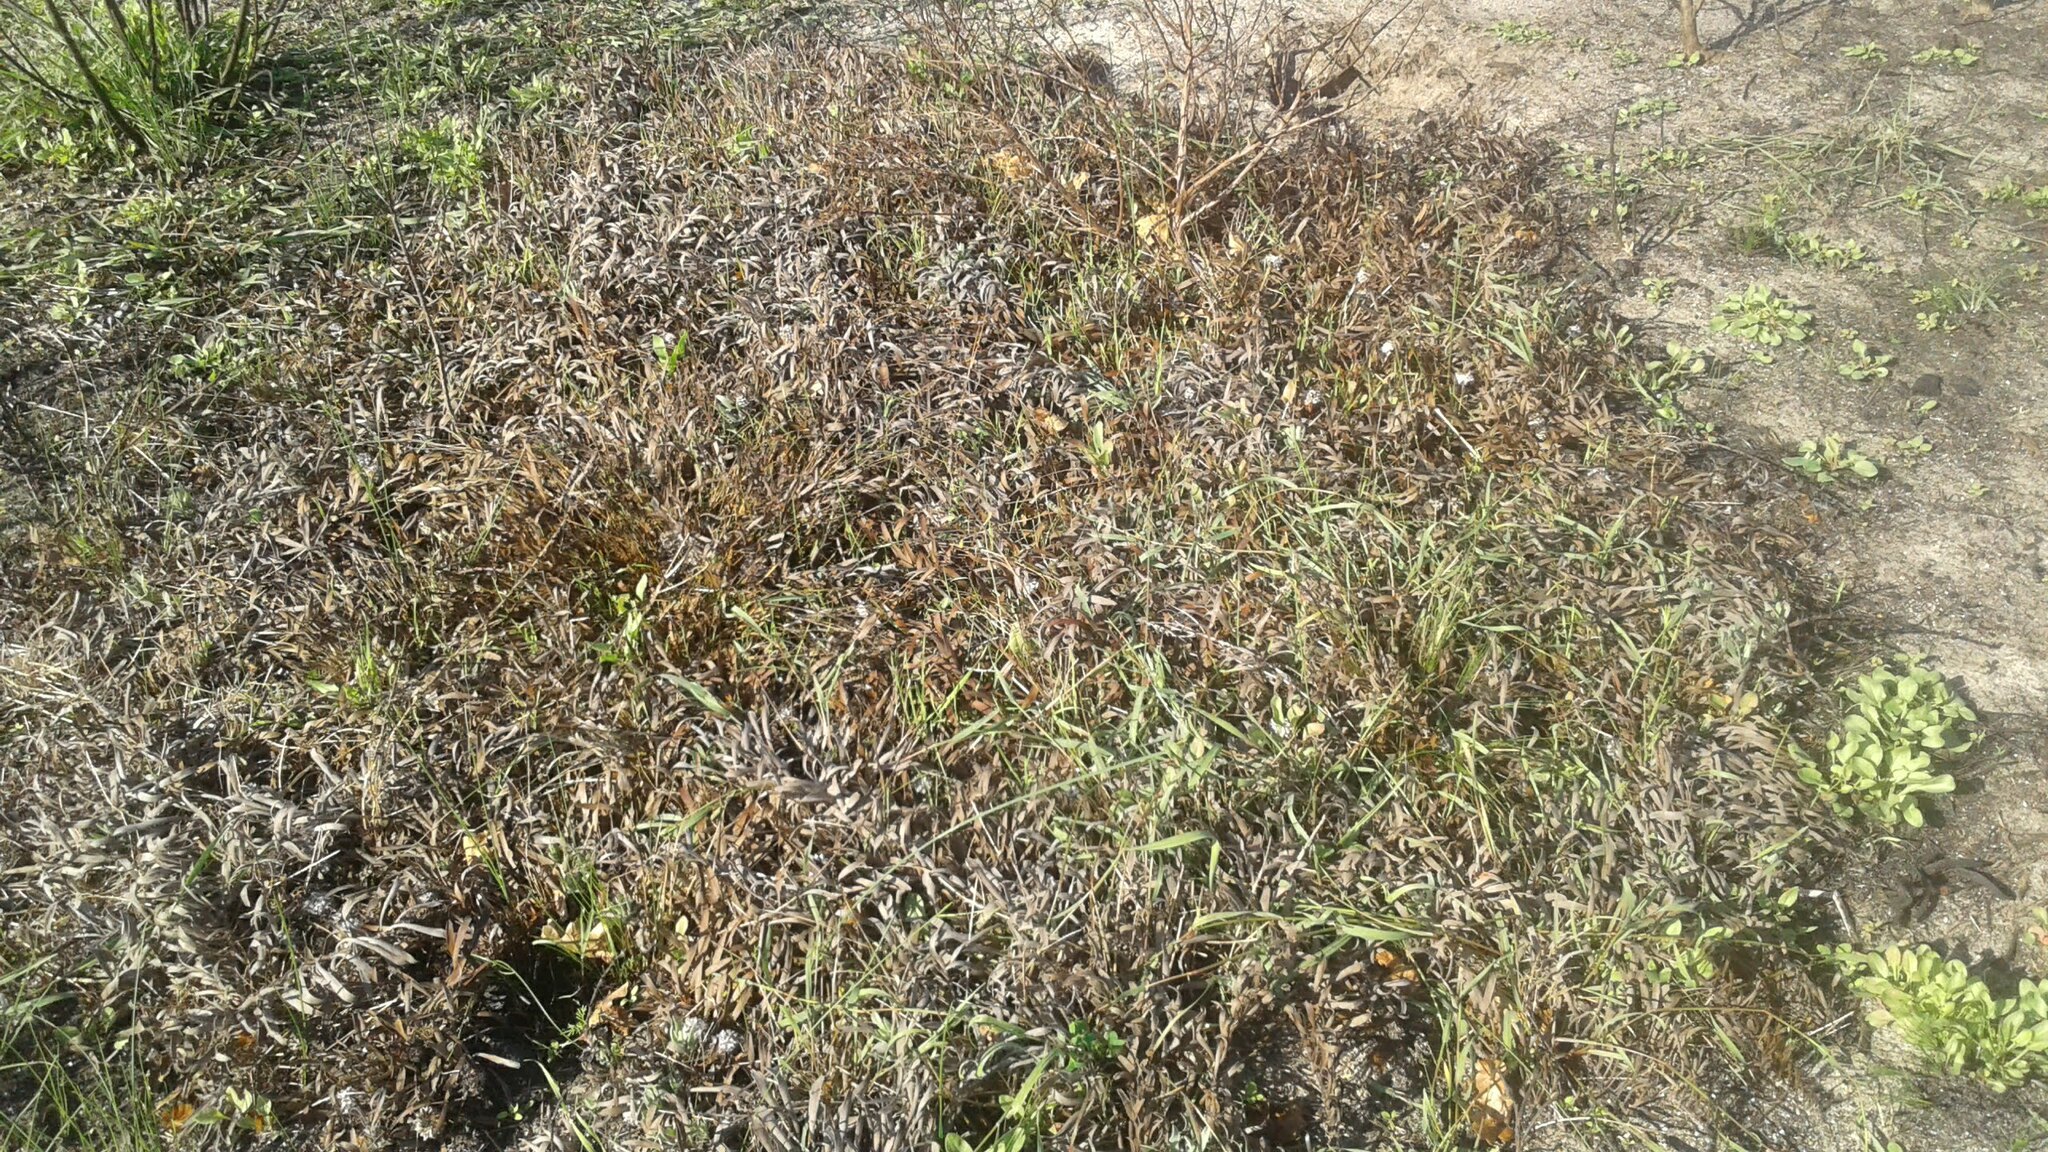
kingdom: Plantae
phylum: Tracheophyta
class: Magnoliopsida
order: Proteales
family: Proteaceae
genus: Leucospermum
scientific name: Leucospermum hypophyllocarpodendron
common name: Snakestem pincushion
